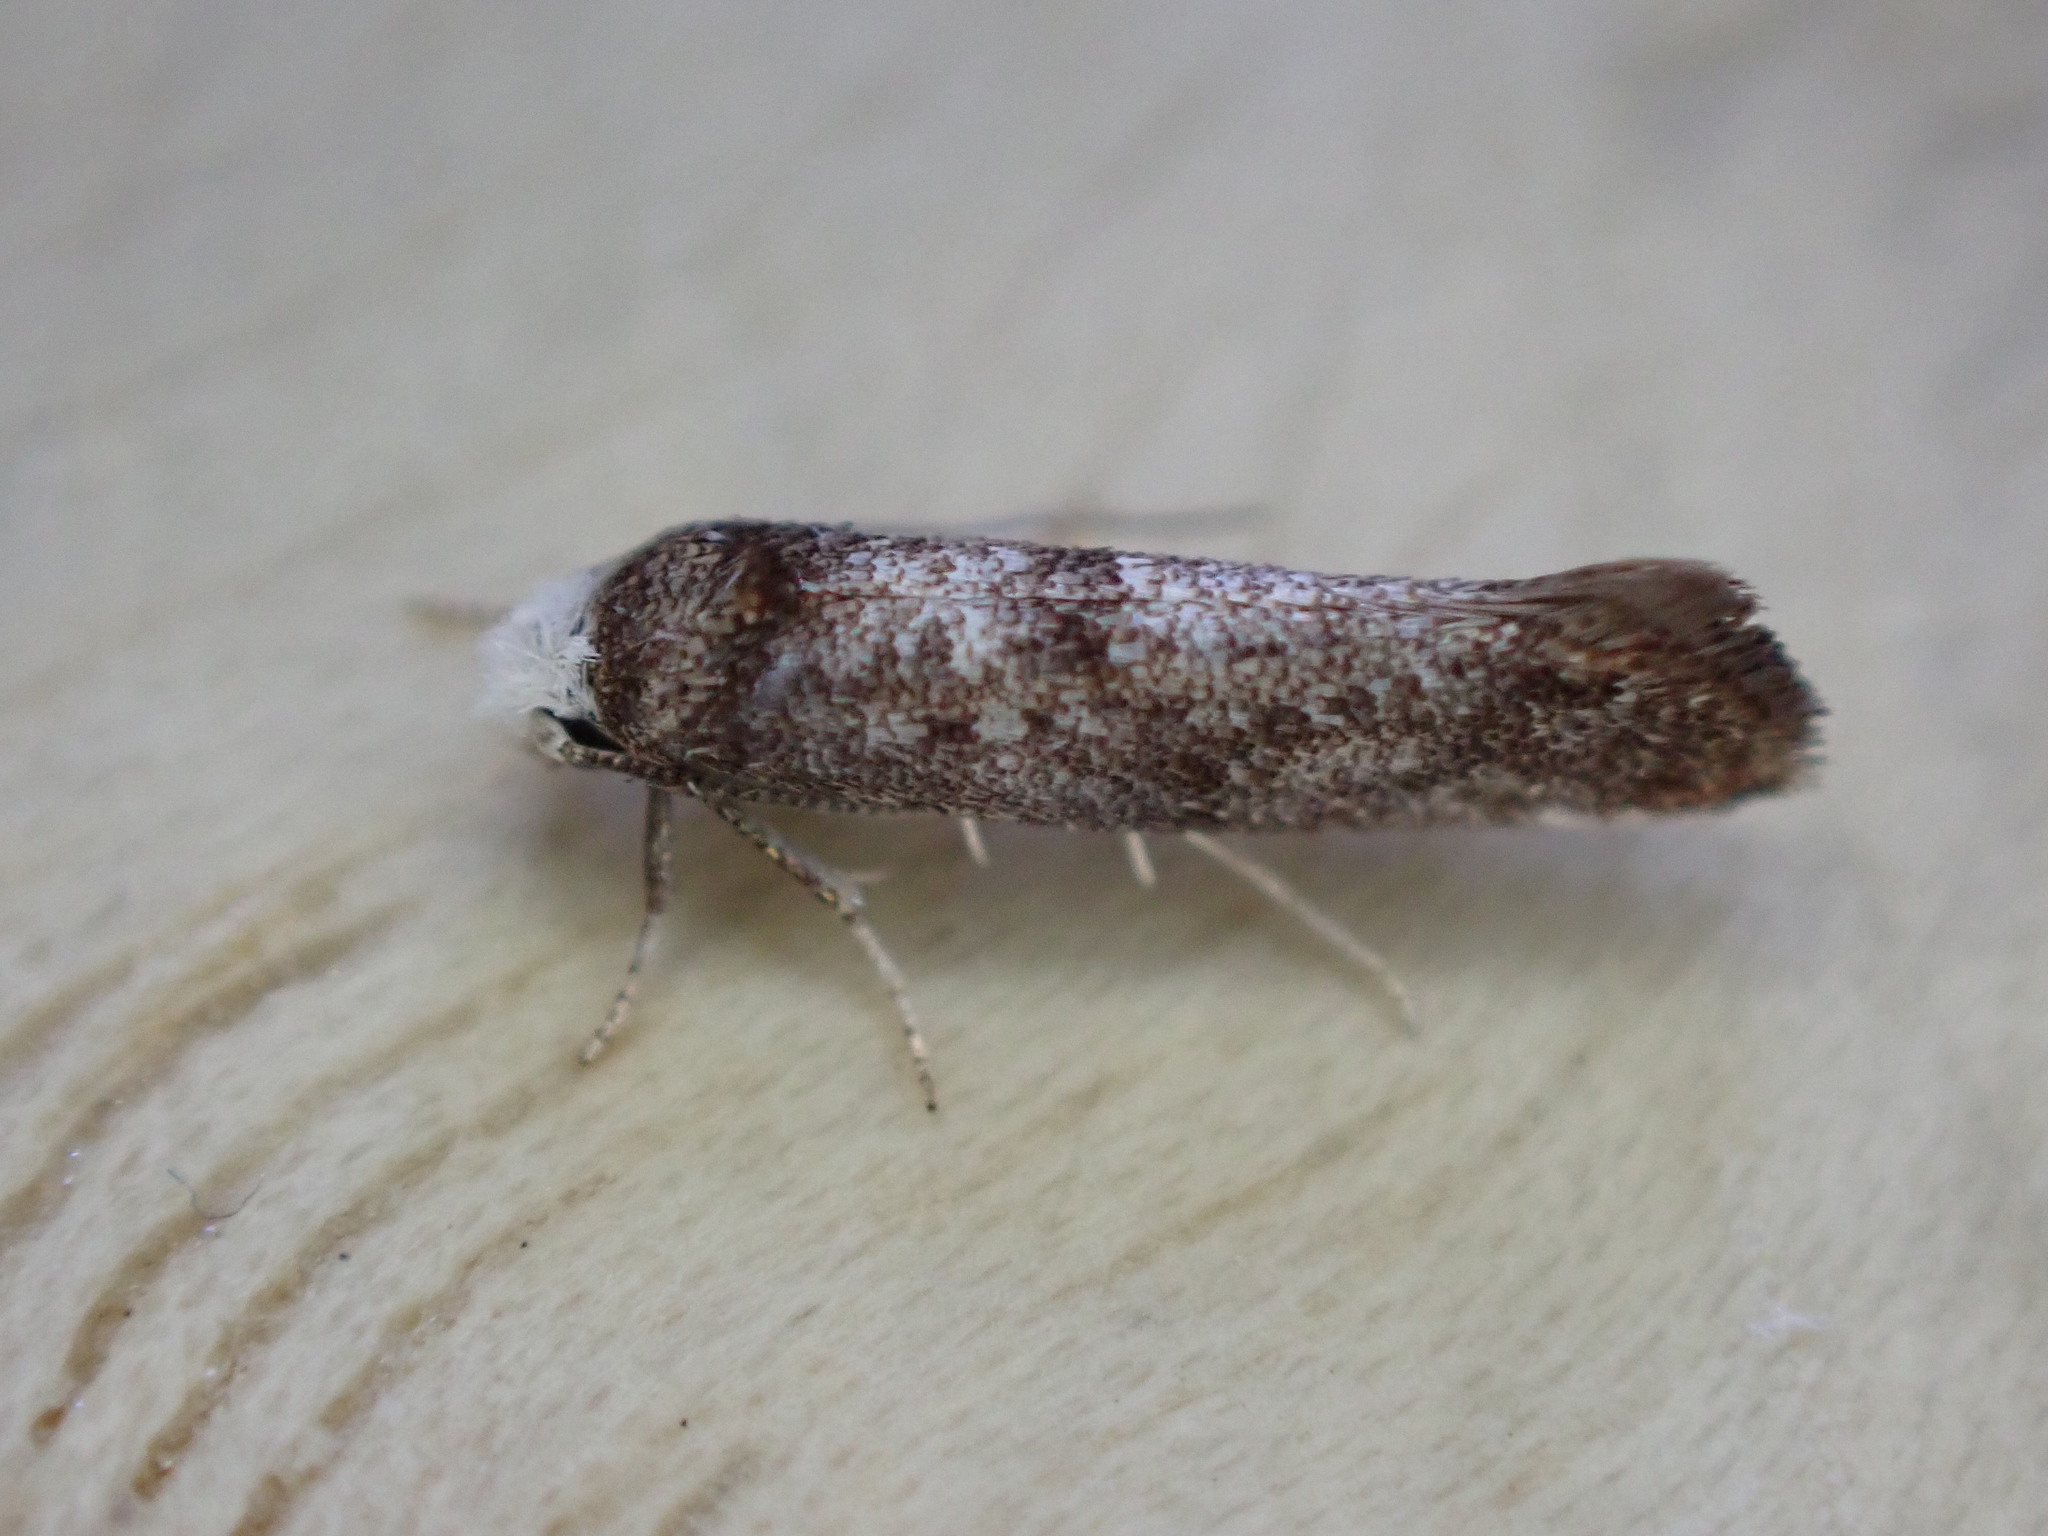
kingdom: Animalia
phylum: Arthropoda
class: Insecta
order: Lepidoptera
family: Yponomeutidae
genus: Swammerdamia
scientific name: Swammerdamia pyrella
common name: Little ermine moth
